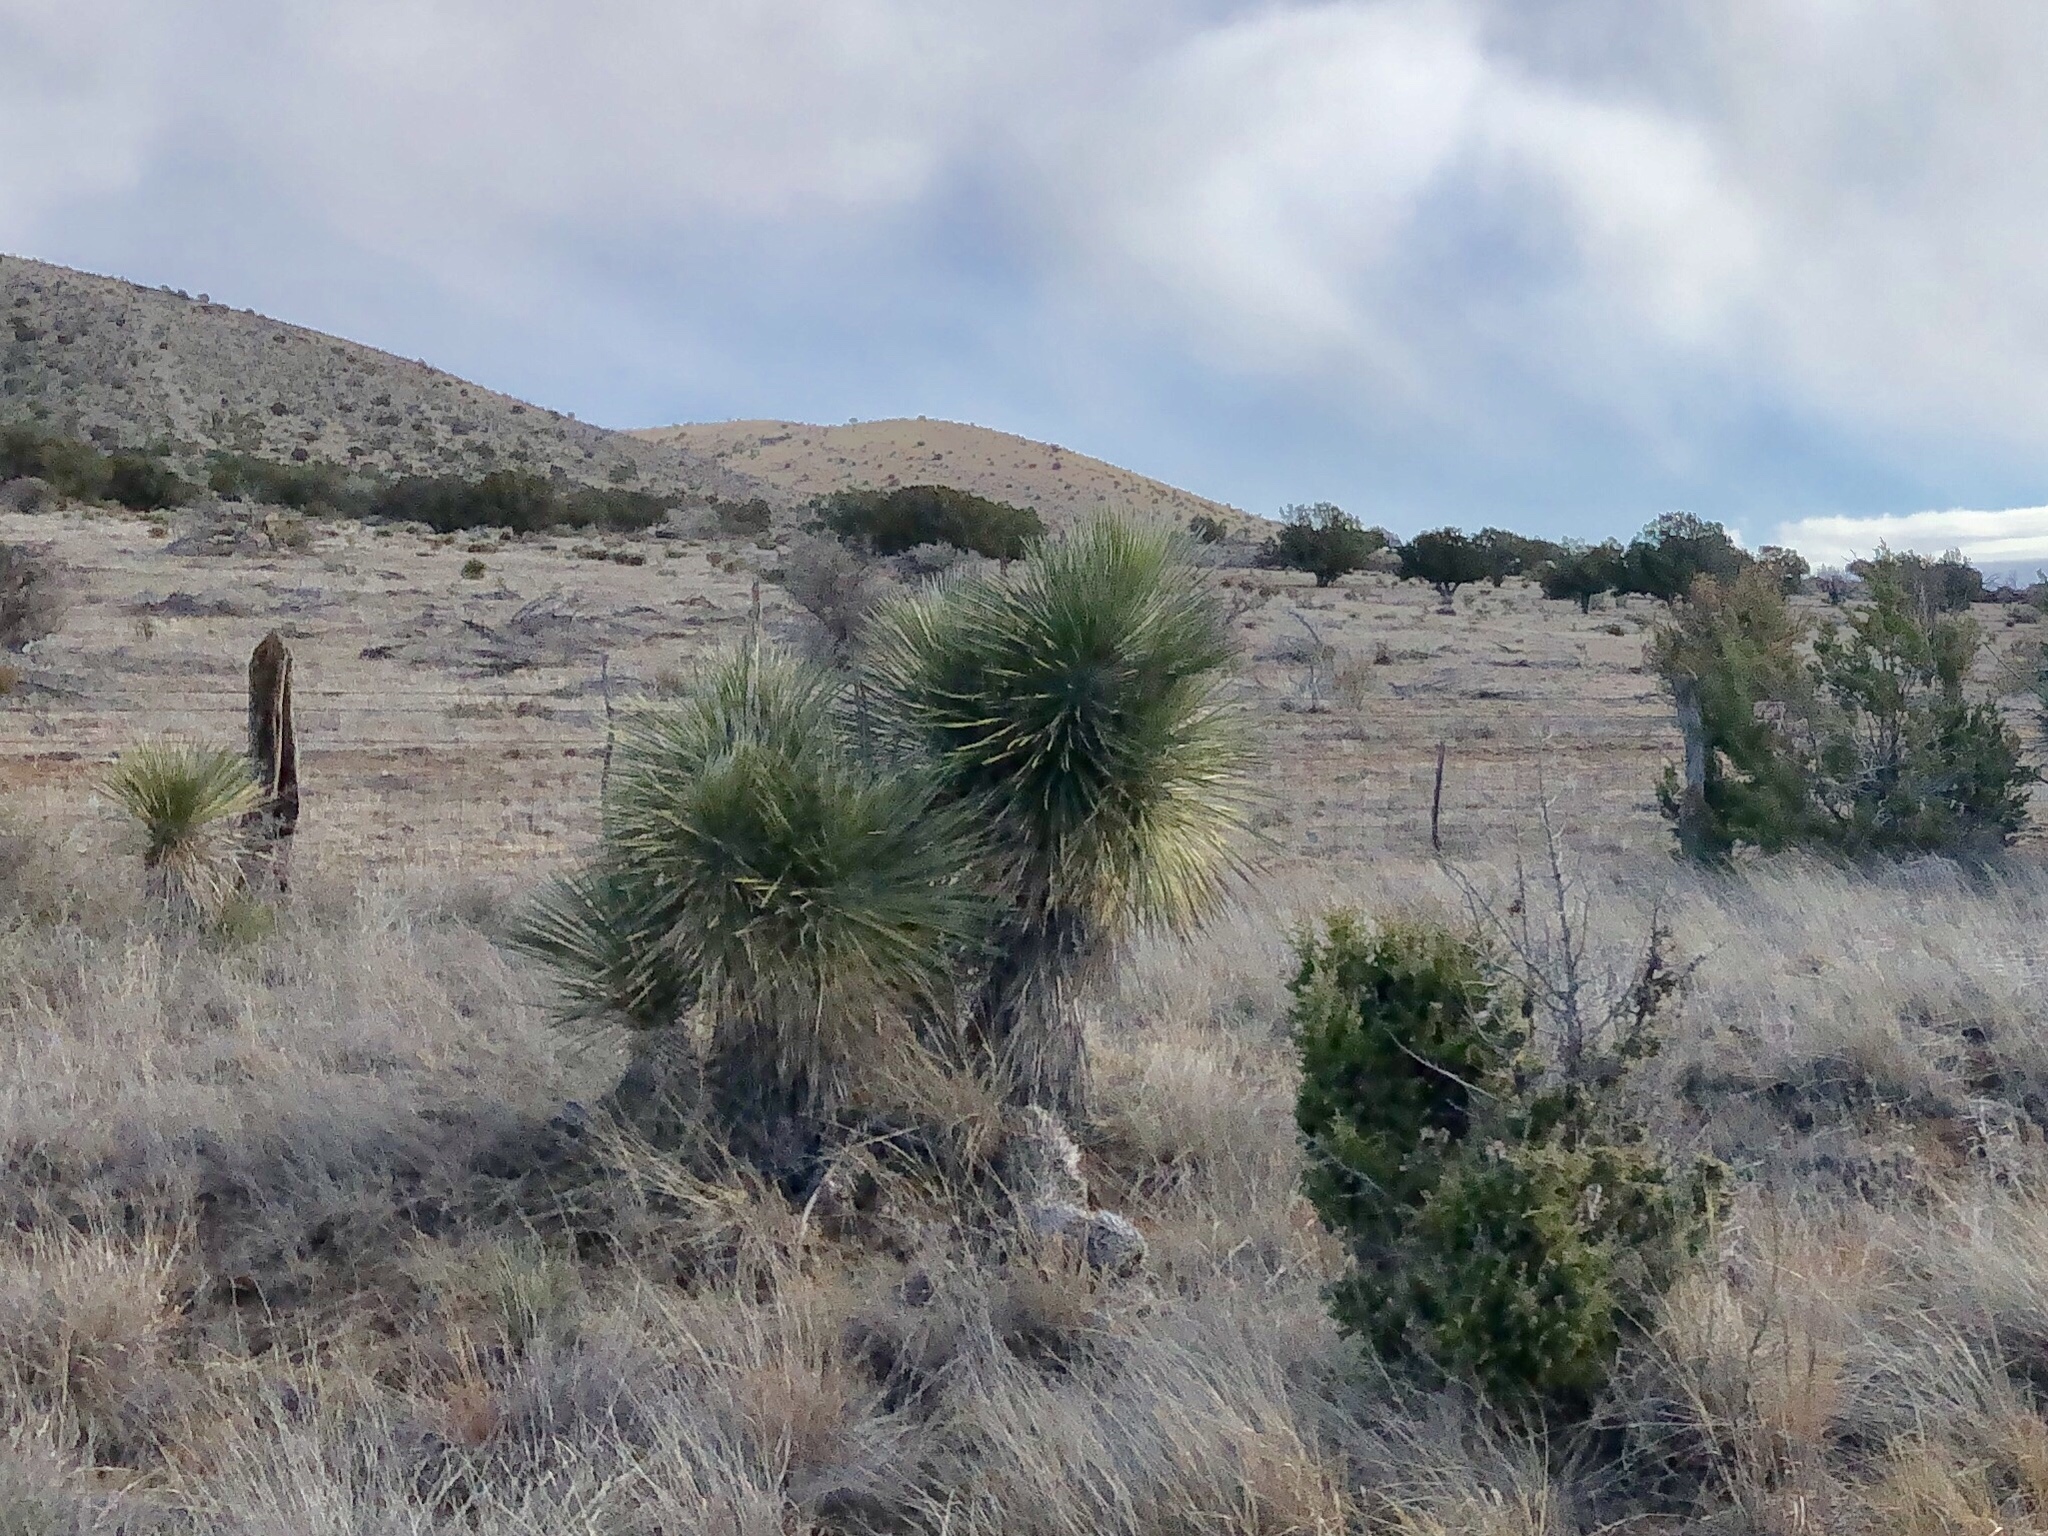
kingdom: Plantae
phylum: Tracheophyta
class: Liliopsida
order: Asparagales
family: Asparagaceae
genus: Yucca
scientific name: Yucca elata
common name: Palmella
